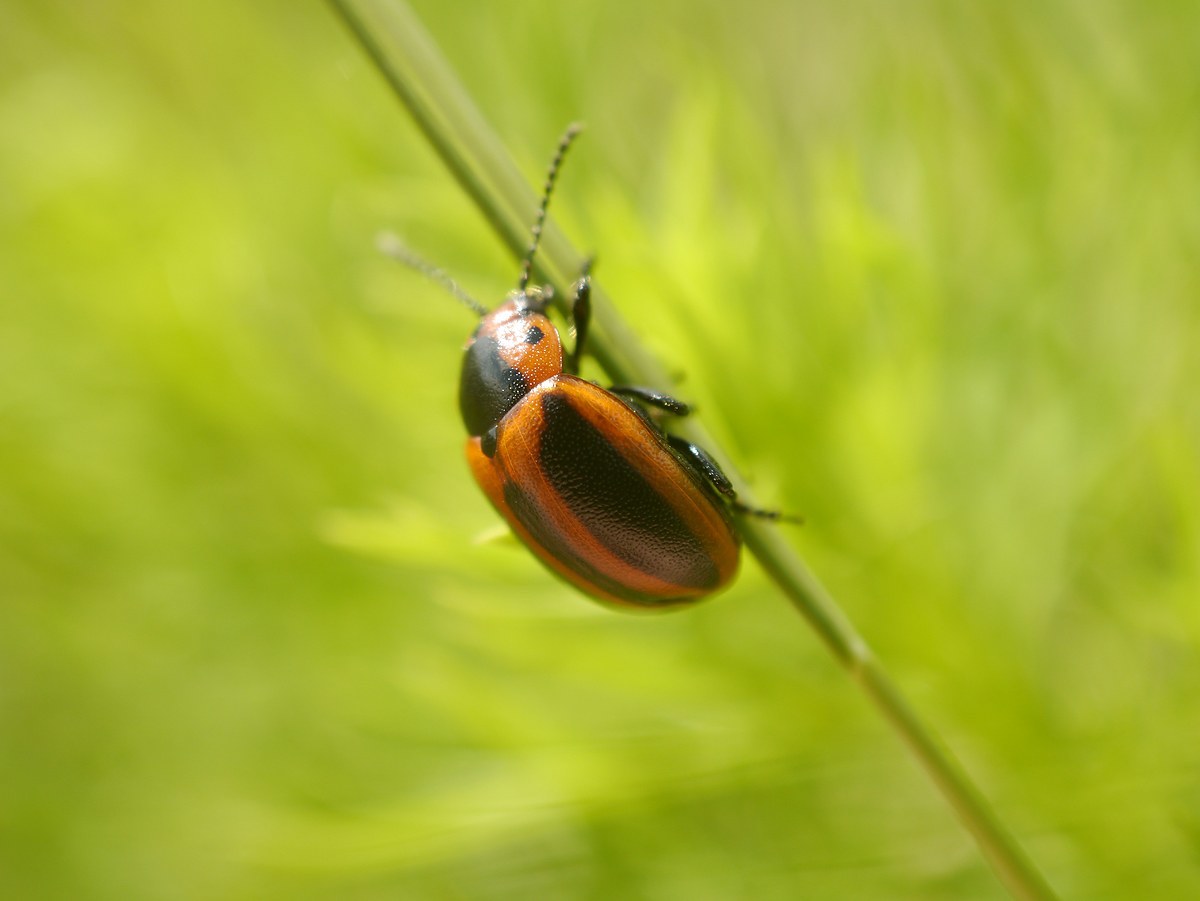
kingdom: Animalia
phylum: Arthropoda
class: Insecta
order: Coleoptera
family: Chrysomelidae
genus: Entomoscelis
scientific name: Entomoscelis adonidis
